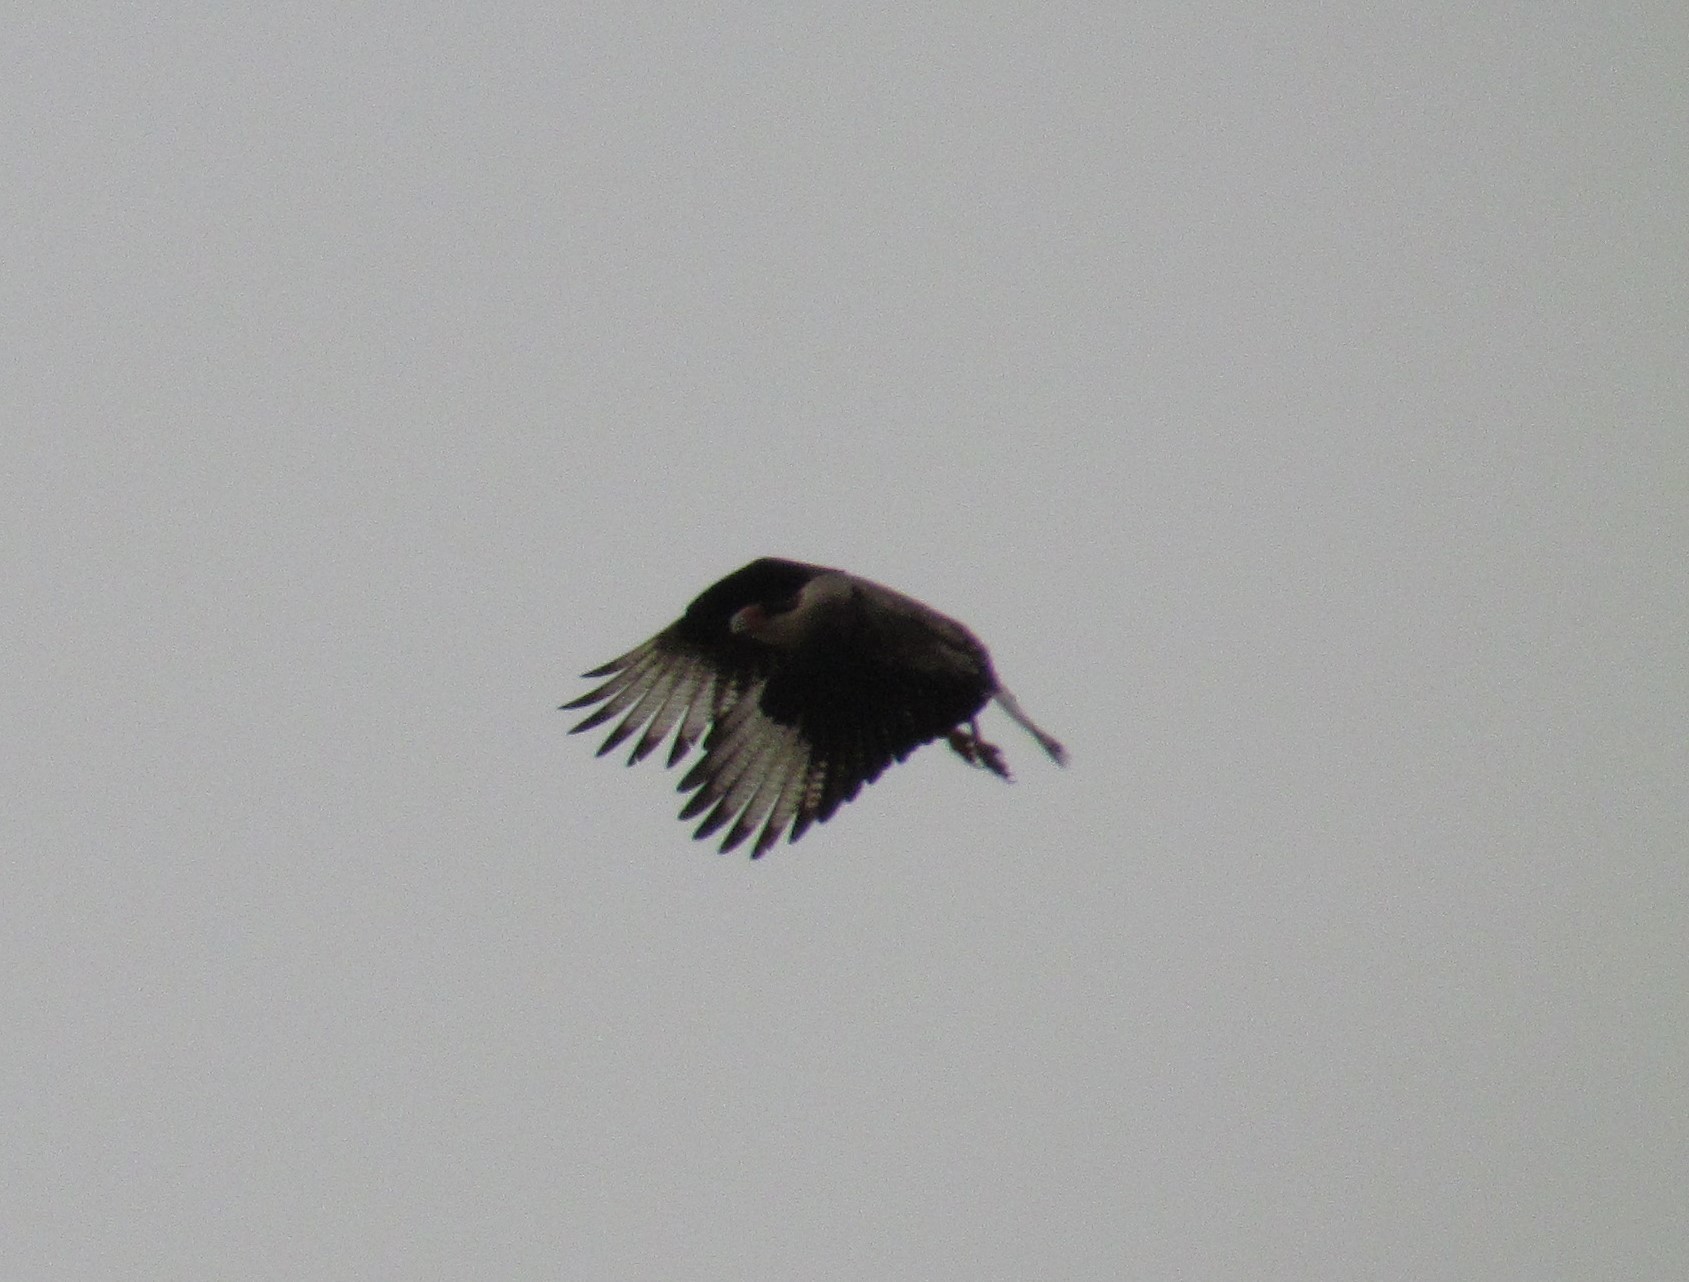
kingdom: Animalia
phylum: Chordata
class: Aves
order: Falconiformes
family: Falconidae
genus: Caracara
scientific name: Caracara plancus
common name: Southern caracara
